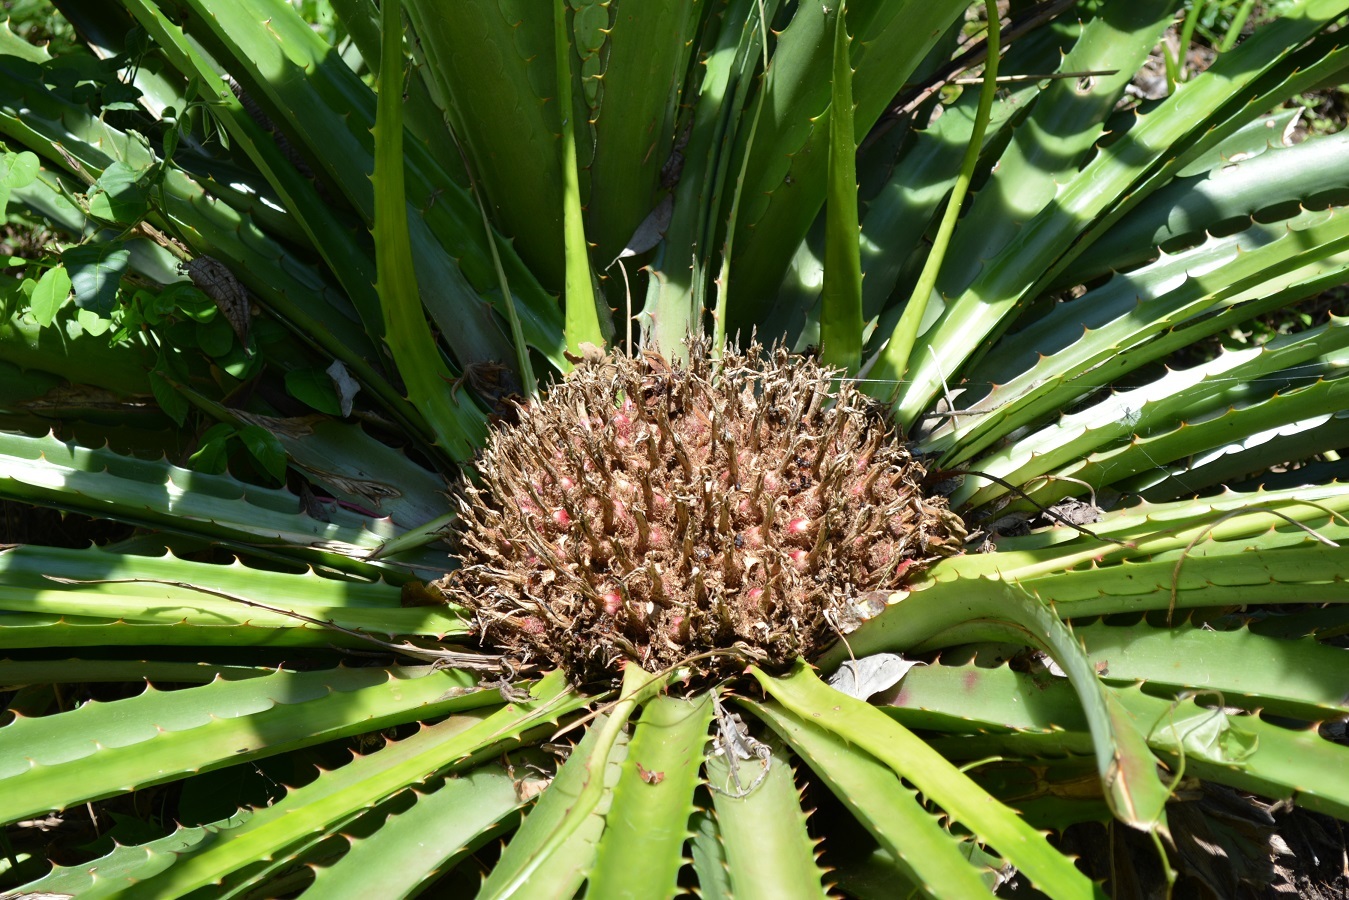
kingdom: Plantae
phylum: Tracheophyta
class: Liliopsida
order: Poales
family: Bromeliaceae
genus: Bromelia
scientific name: Bromelia karatas
